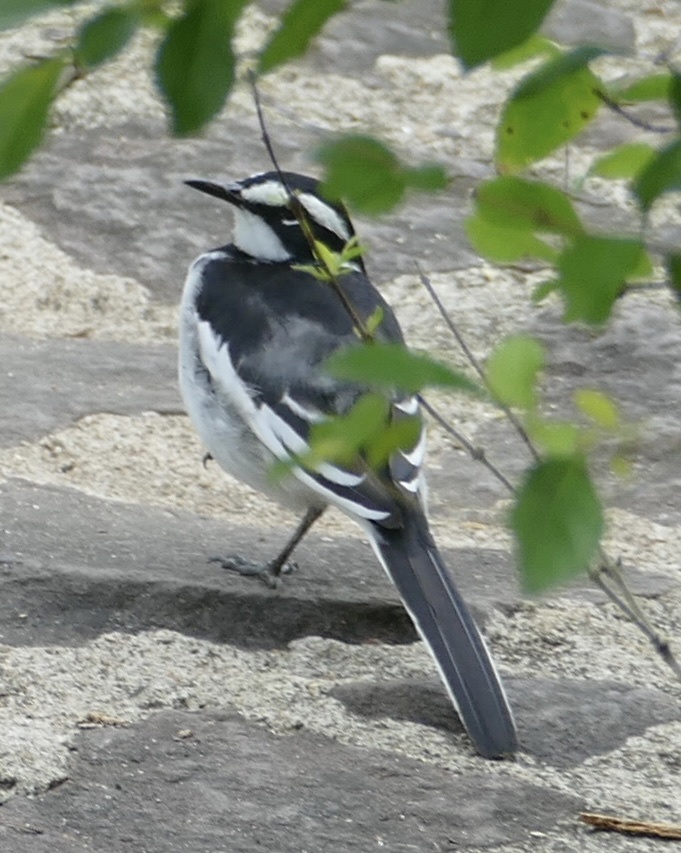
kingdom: Animalia
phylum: Chordata
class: Aves
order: Passeriformes
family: Motacillidae
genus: Motacilla
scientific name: Motacilla aguimp
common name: African pied wagtail
